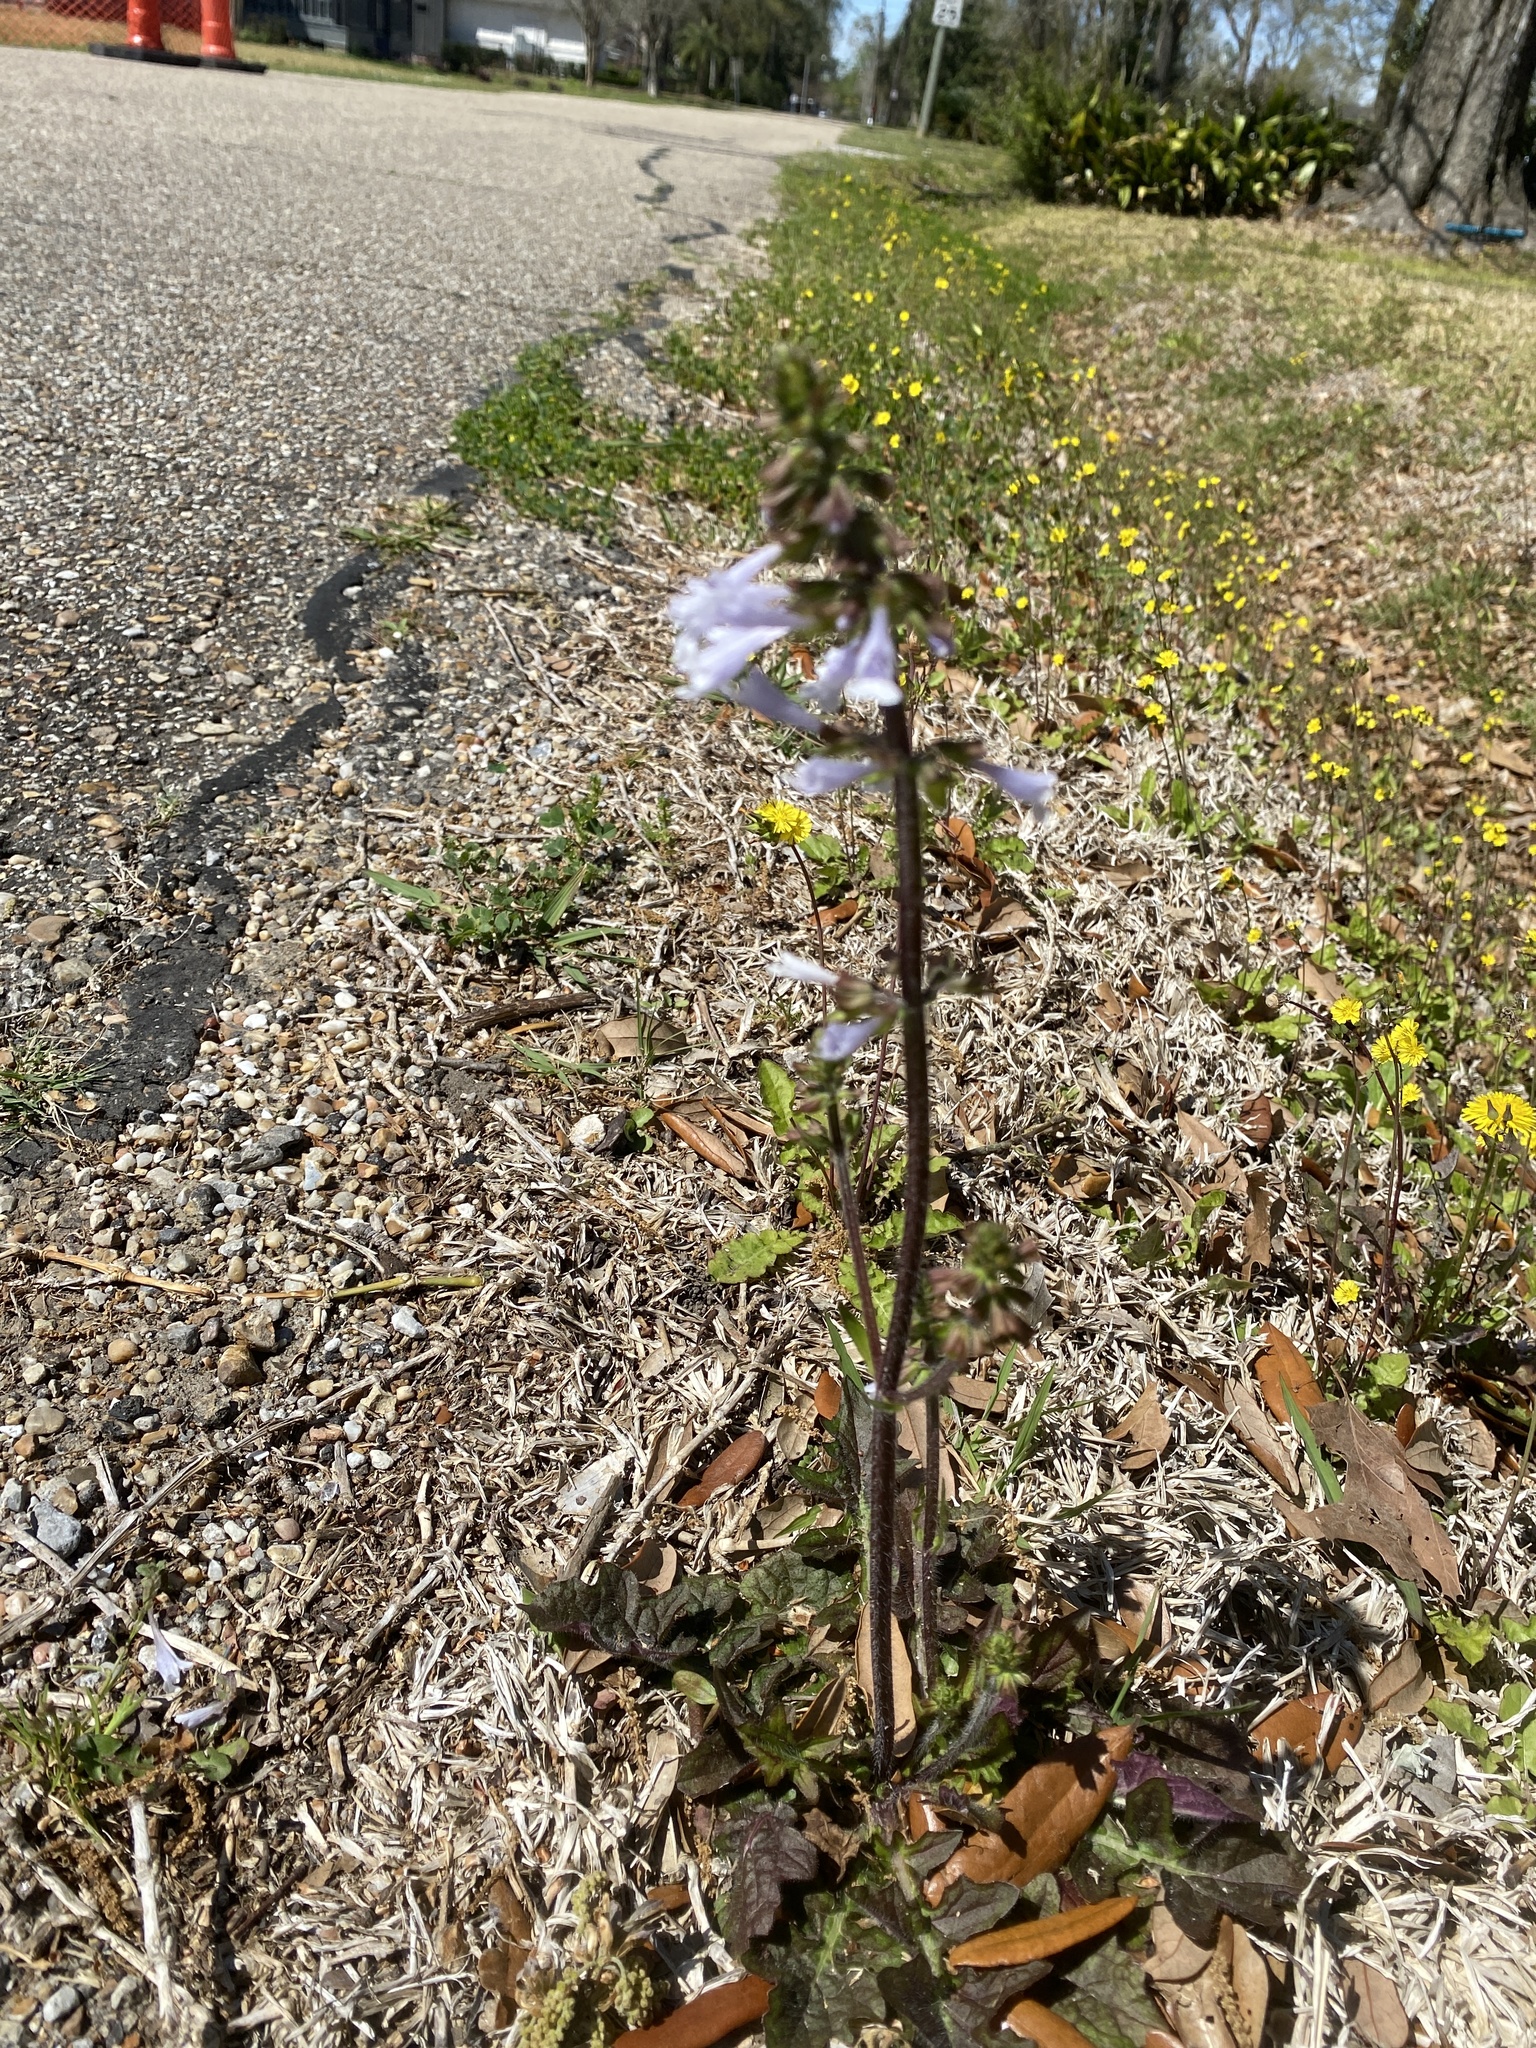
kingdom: Plantae
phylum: Tracheophyta
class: Magnoliopsida
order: Lamiales
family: Lamiaceae
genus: Salvia
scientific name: Salvia lyrata
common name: Cancerweed
